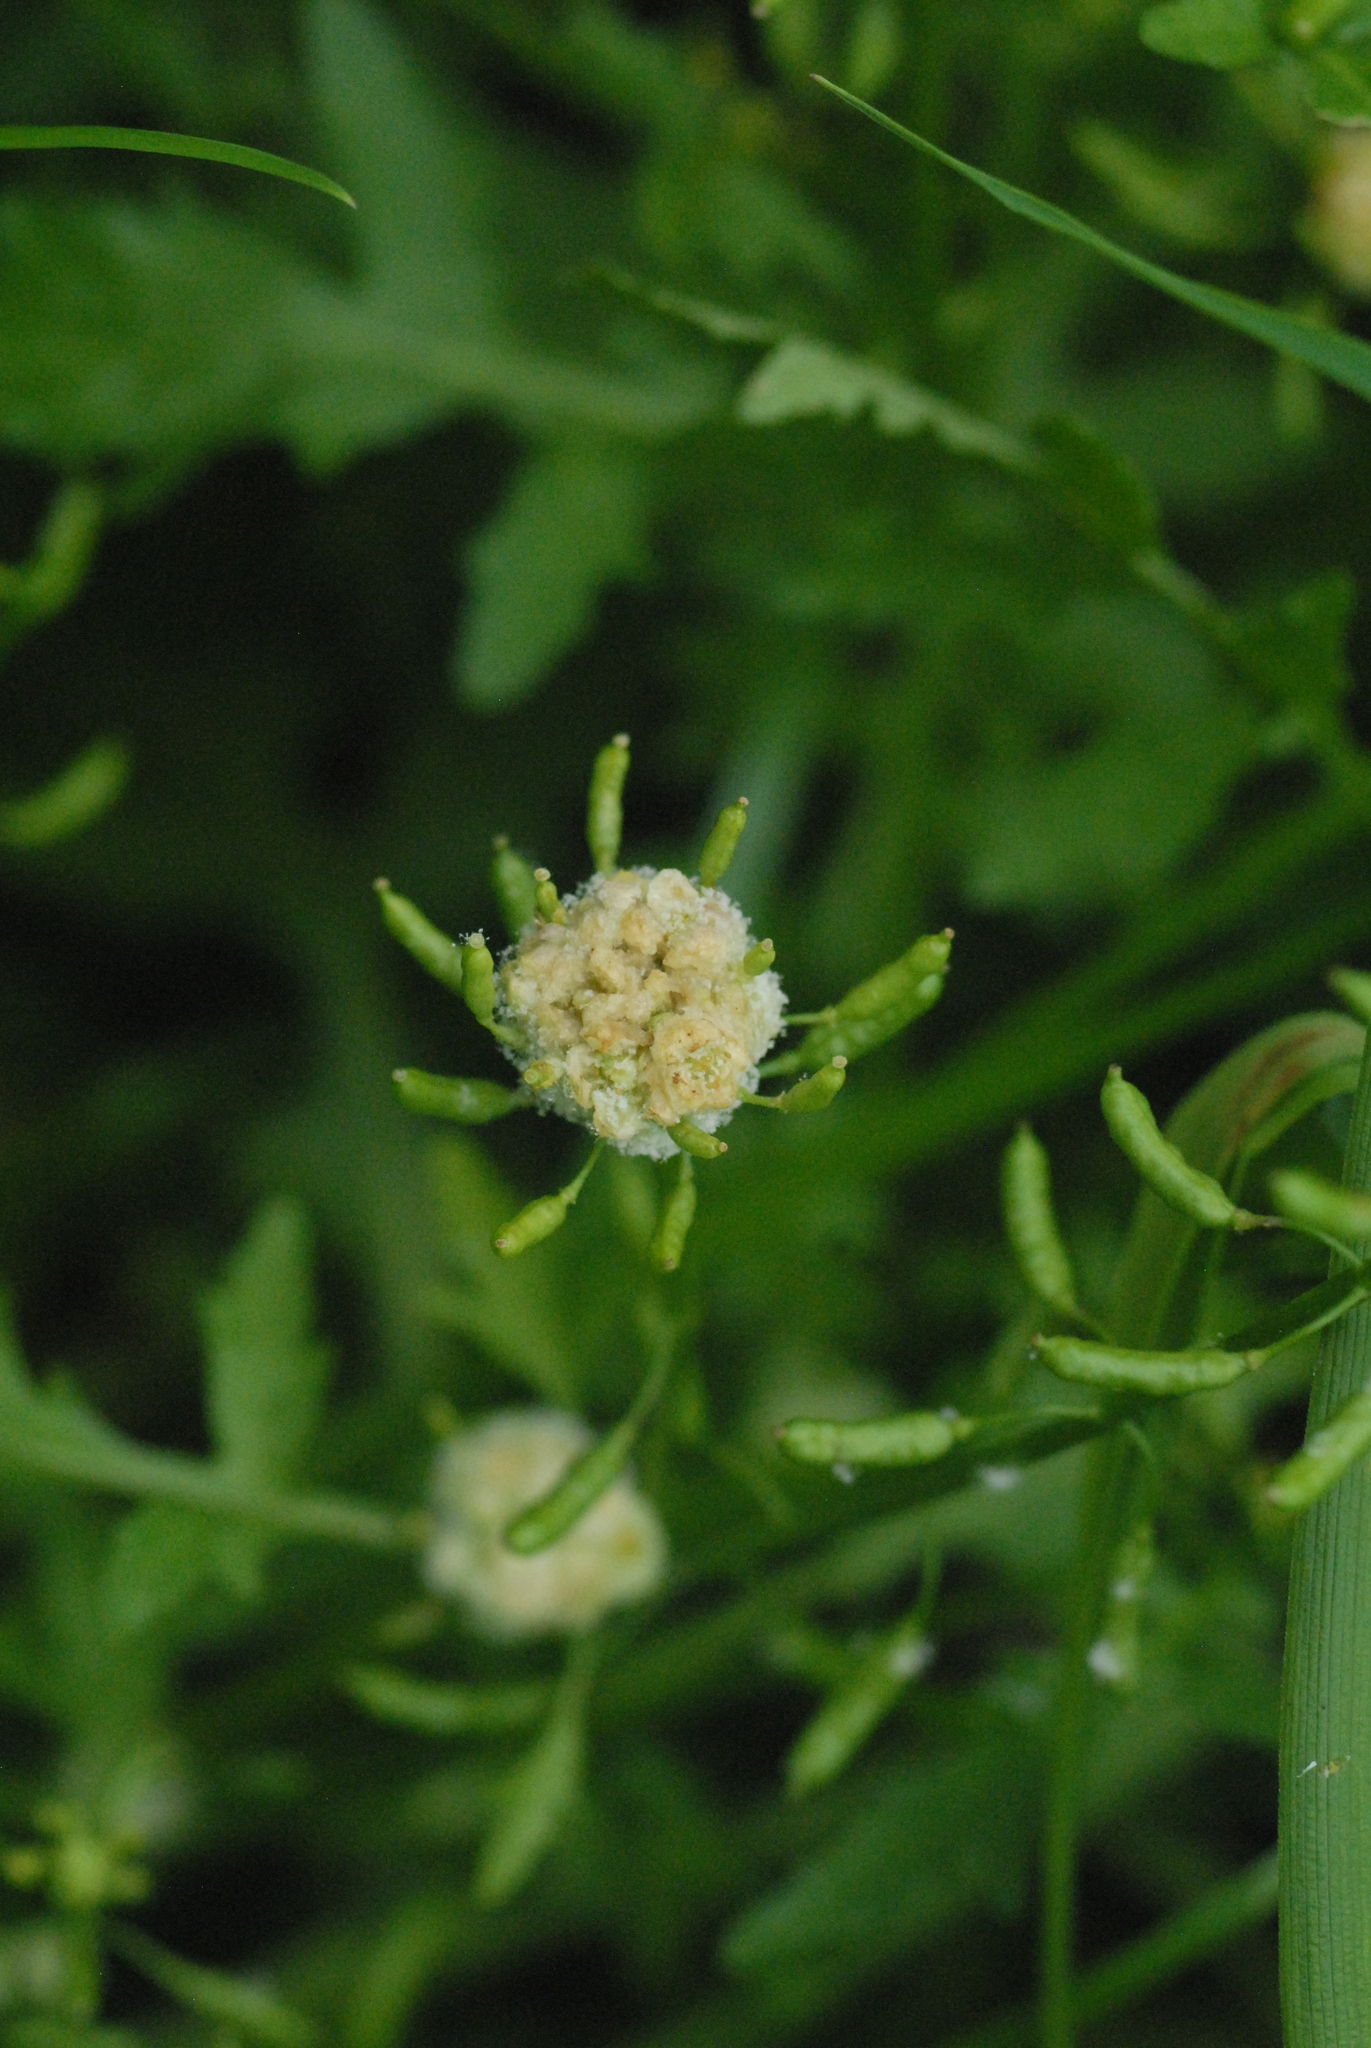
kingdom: Plantae
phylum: Tracheophyta
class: Magnoliopsida
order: Brassicales
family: Brassicaceae
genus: Rorippa
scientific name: Rorippa palustris
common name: Marsh yellow-cress
